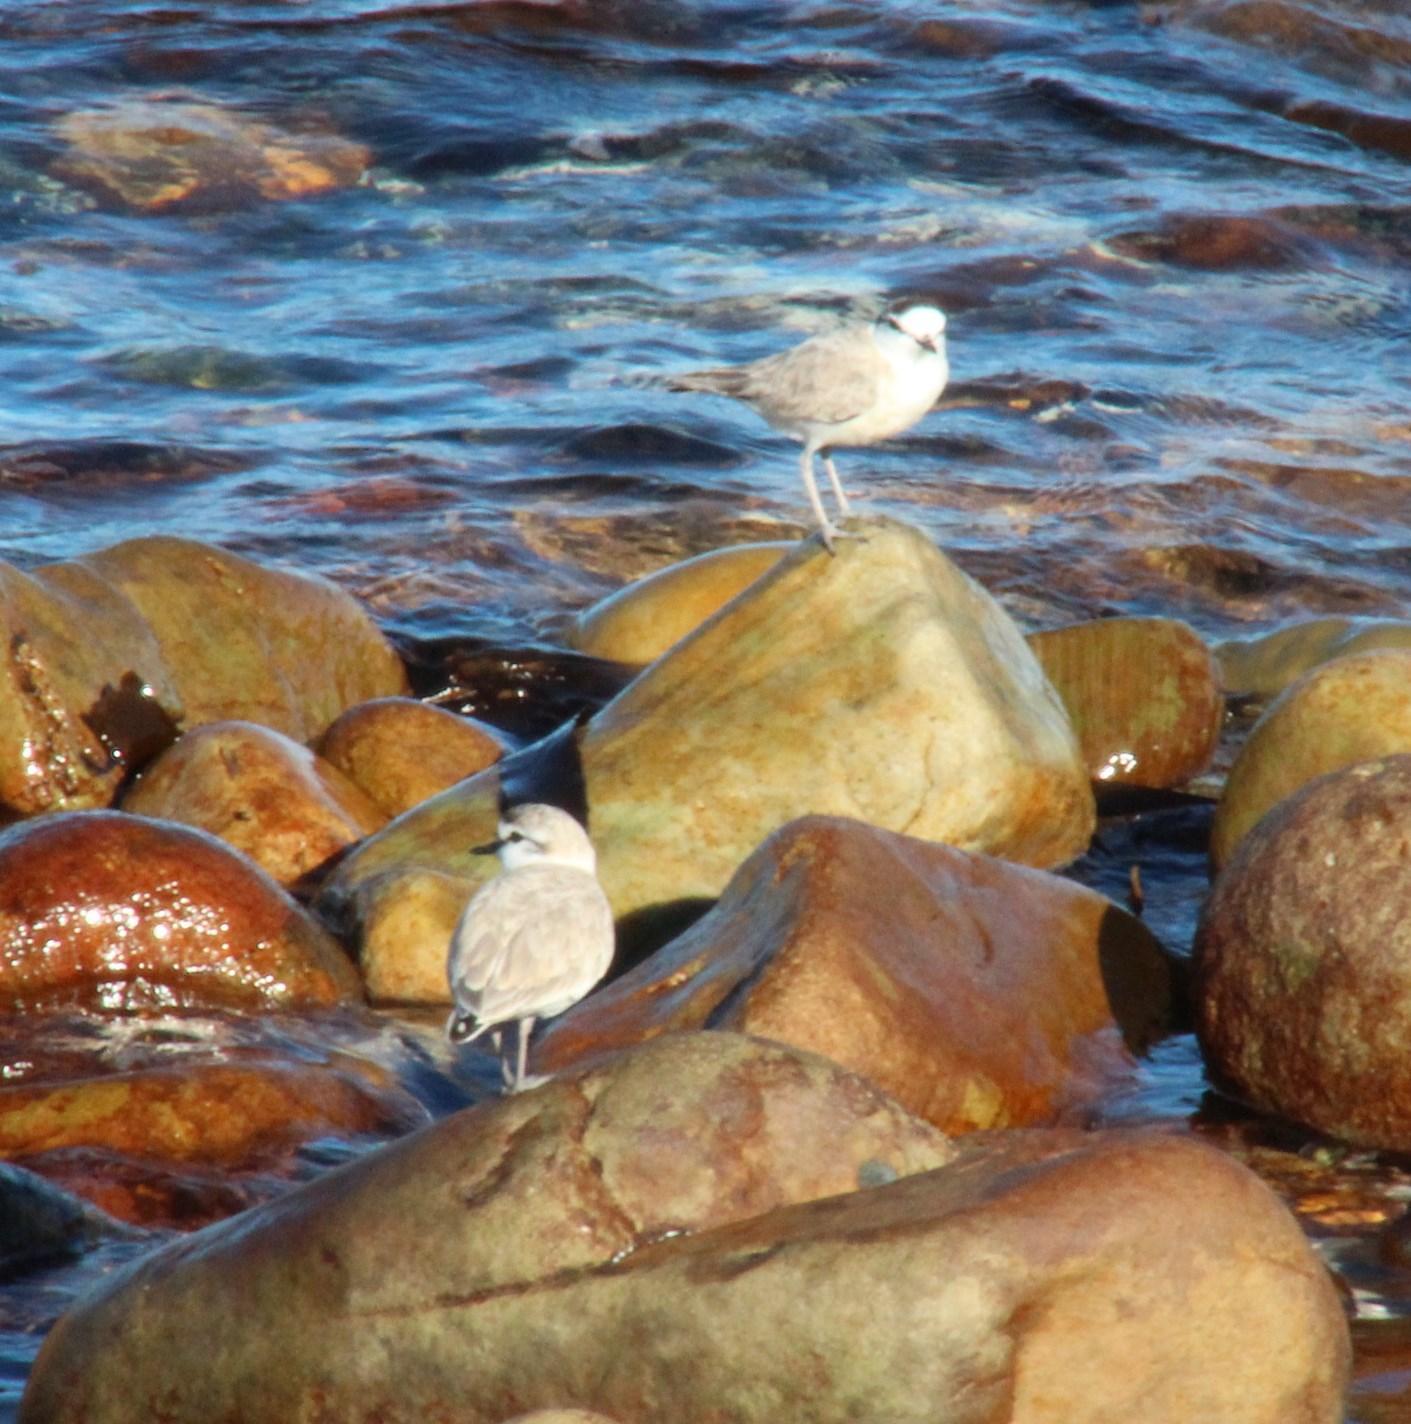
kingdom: Animalia
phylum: Chordata
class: Aves
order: Charadriiformes
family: Charadriidae
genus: Anarhynchus
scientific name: Anarhynchus
